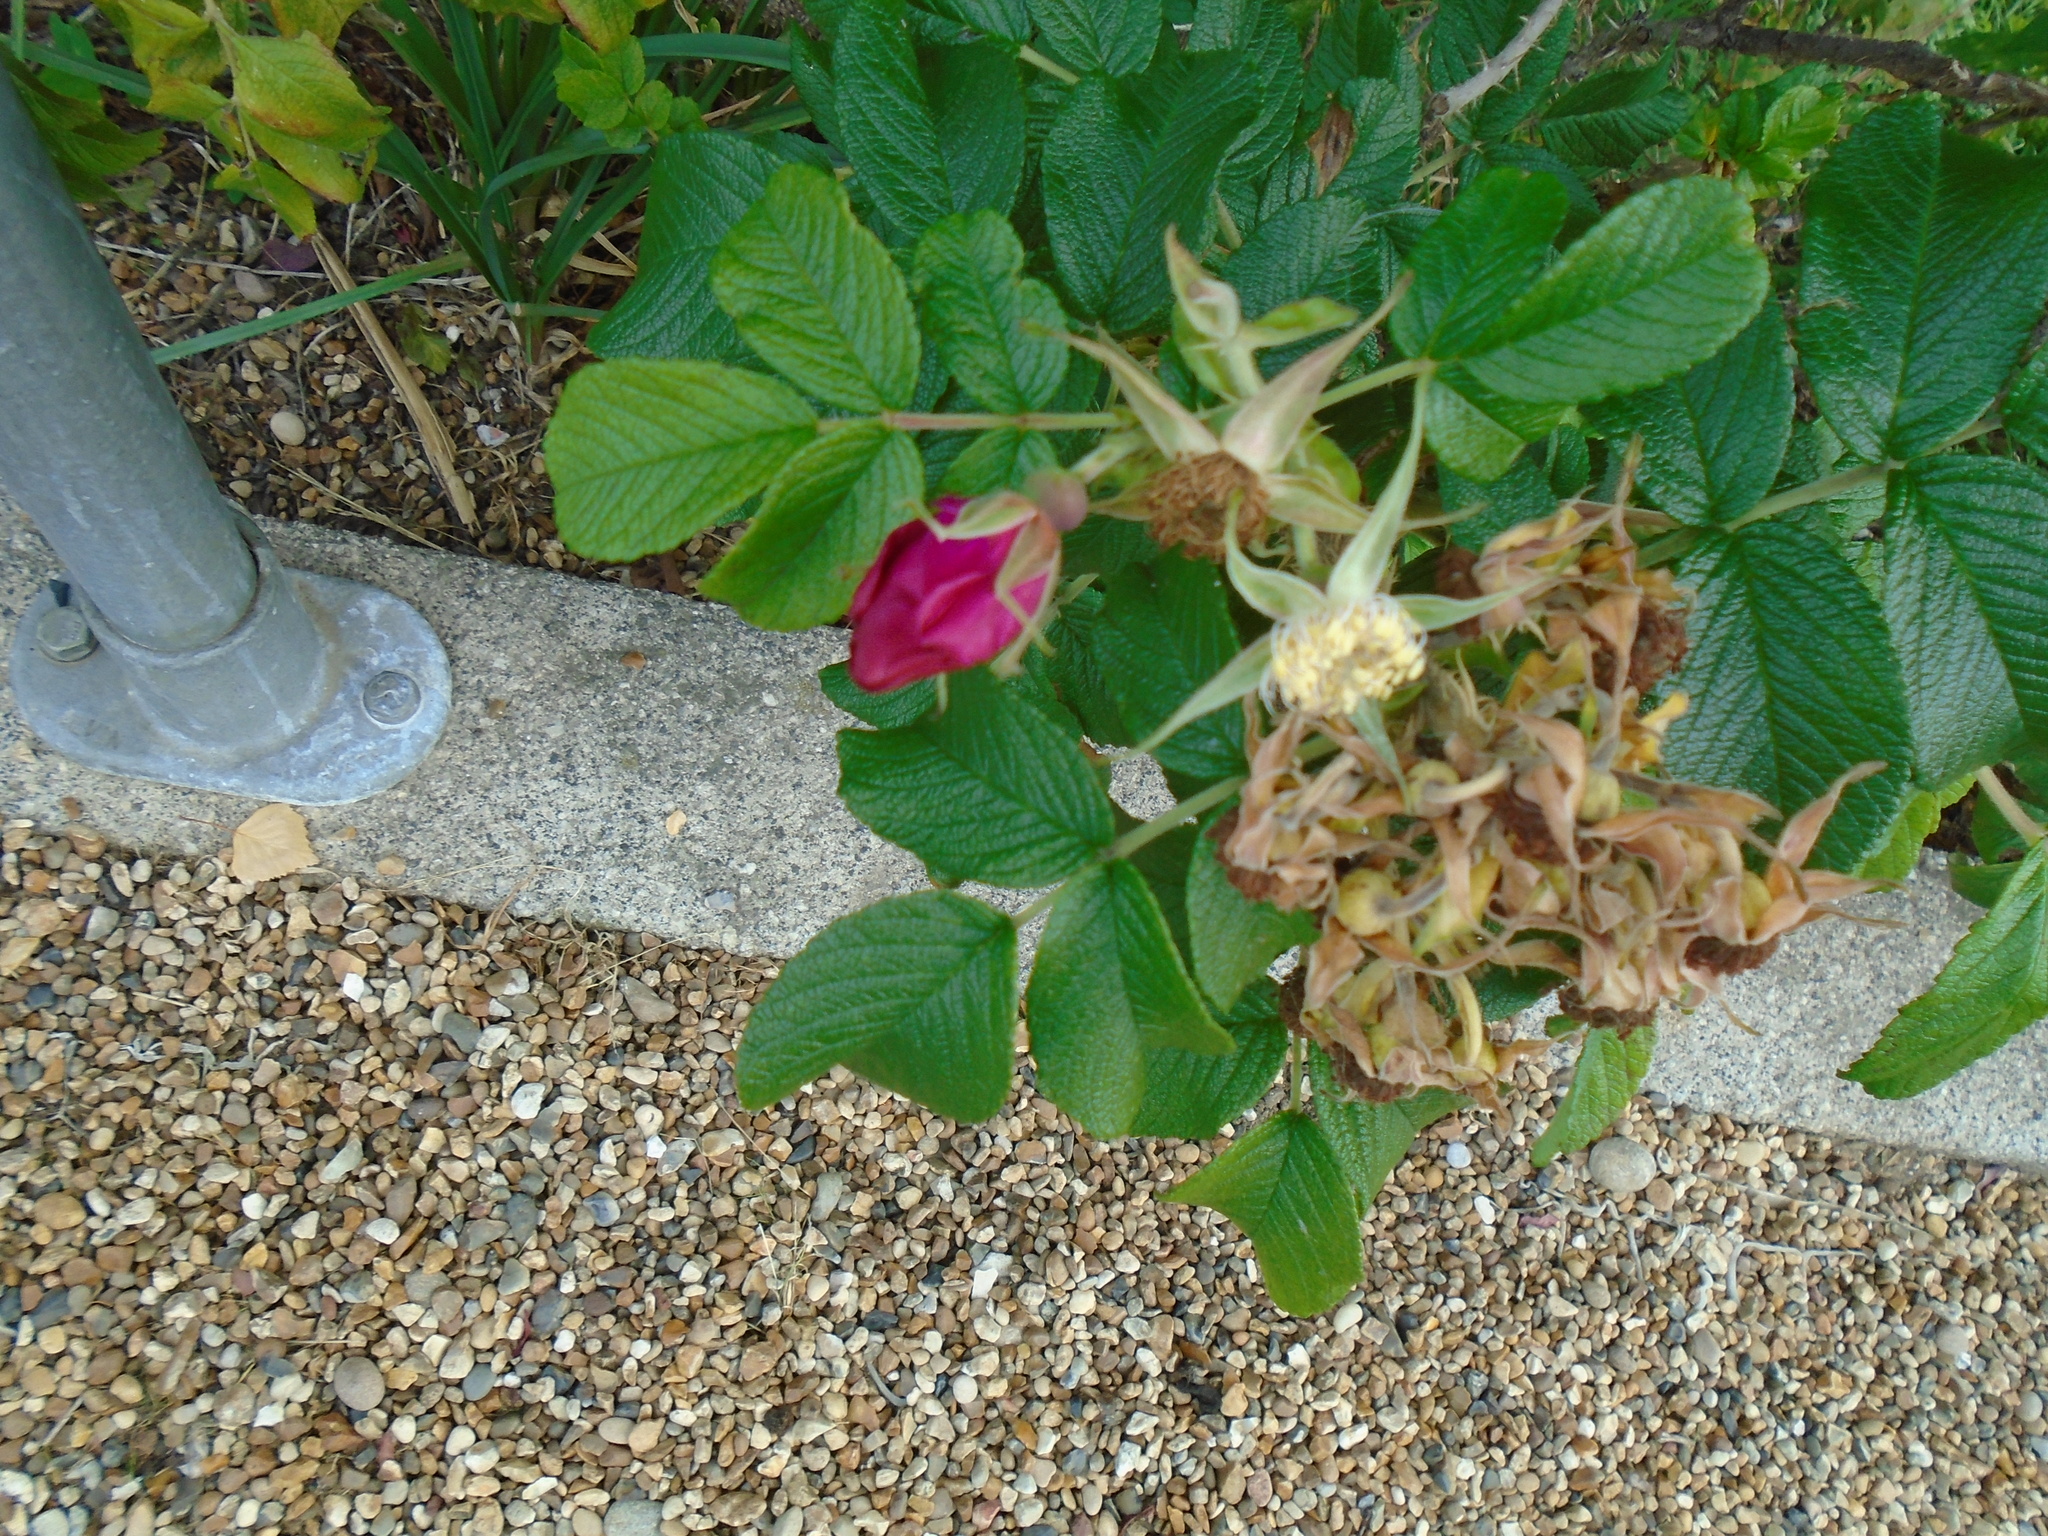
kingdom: Plantae
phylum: Tracheophyta
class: Magnoliopsida
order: Rosales
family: Rosaceae
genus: Rosa
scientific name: Rosa rugosa
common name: Japanese rose
